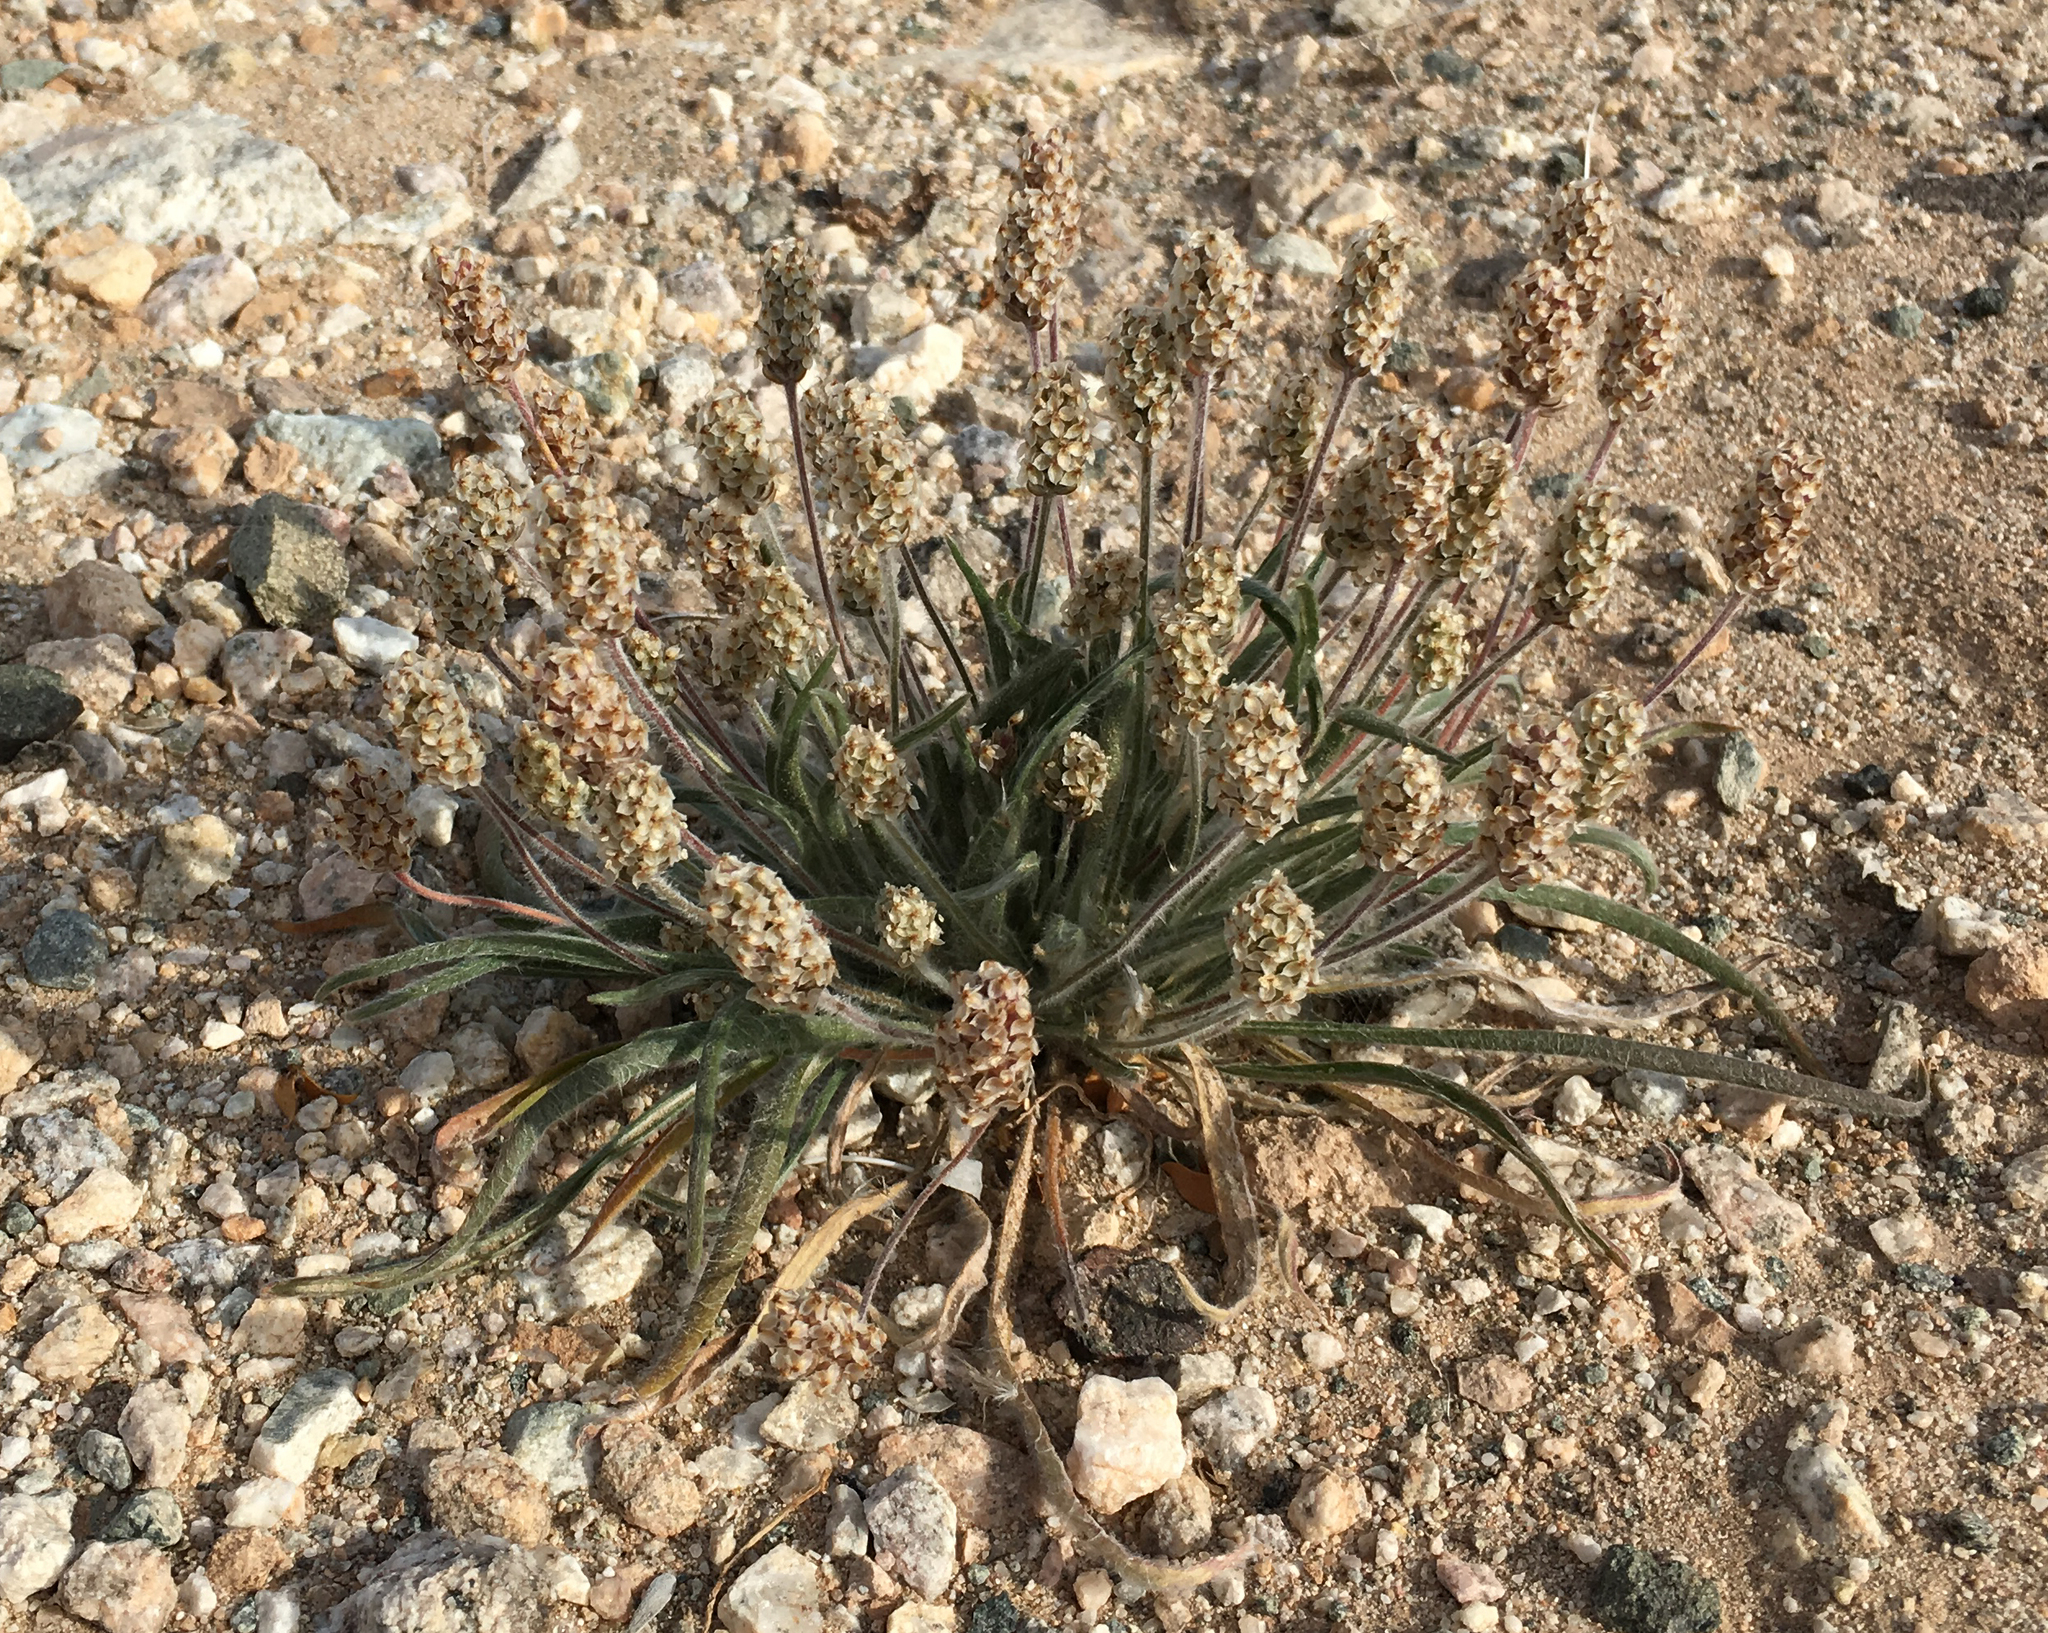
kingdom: Plantae
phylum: Tracheophyta
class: Magnoliopsida
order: Lamiales
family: Plantaginaceae
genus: Plantago
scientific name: Plantago ovata
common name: Blond plantain
